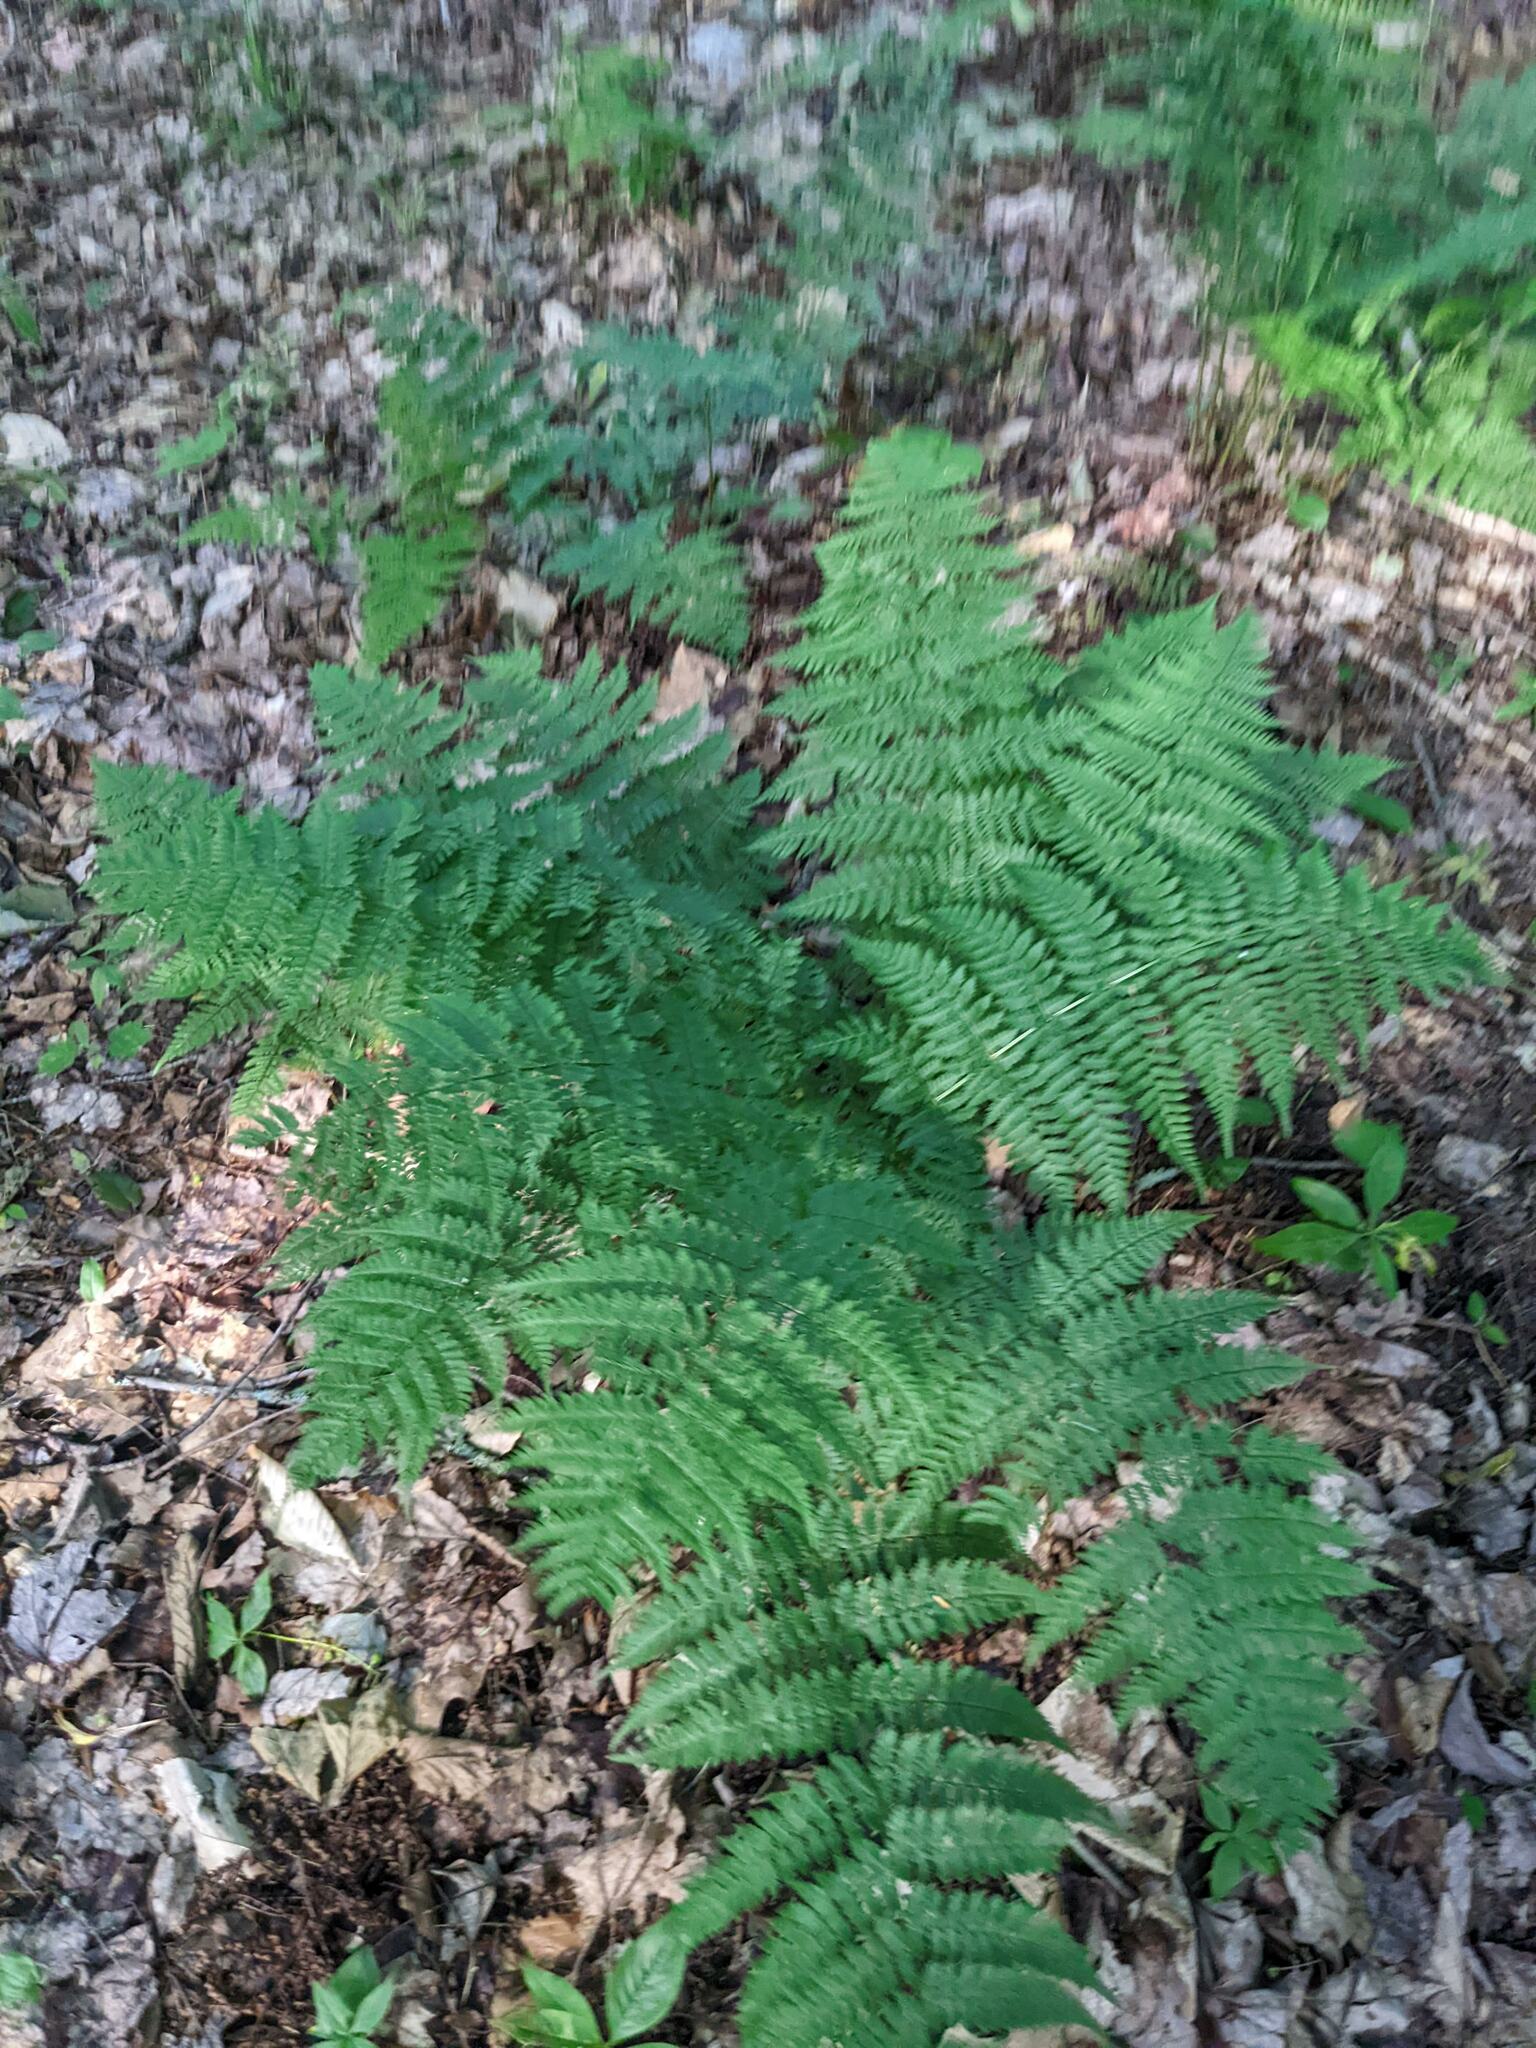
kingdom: Plantae
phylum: Tracheophyta
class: Polypodiopsida
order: Polypodiales
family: Dryopteridaceae
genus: Dryopteris
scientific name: Dryopteris intermedia
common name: Evergreen wood fern
